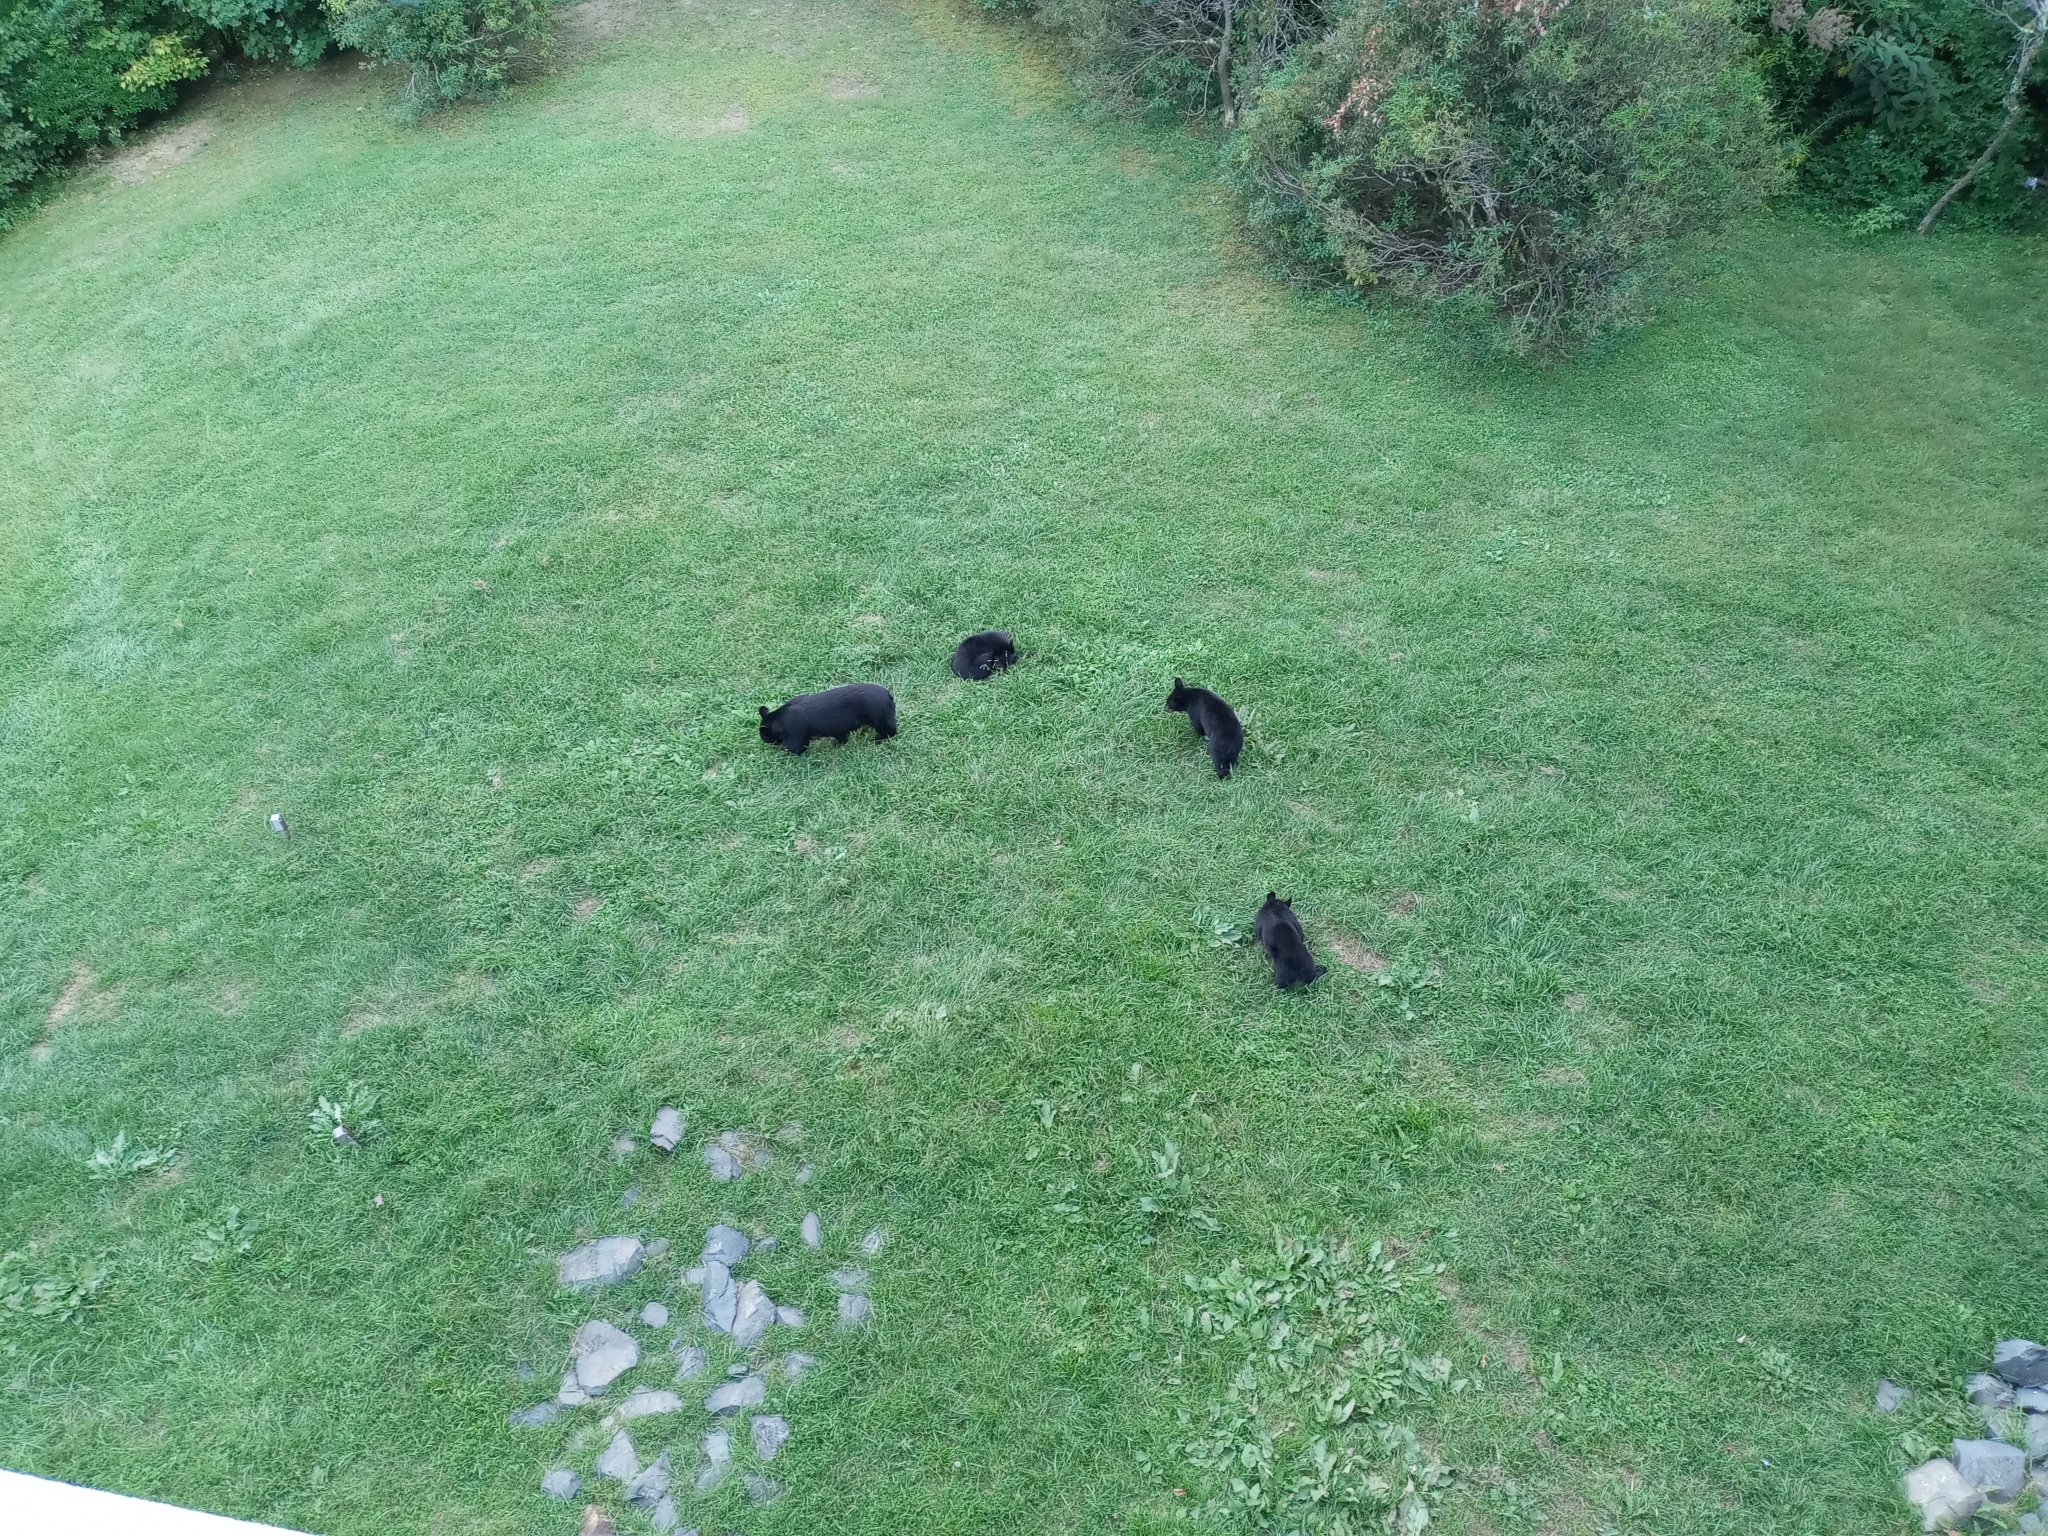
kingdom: Animalia
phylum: Chordata
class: Mammalia
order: Carnivora
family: Ursidae
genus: Ursus
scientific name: Ursus americanus
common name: American black bear
